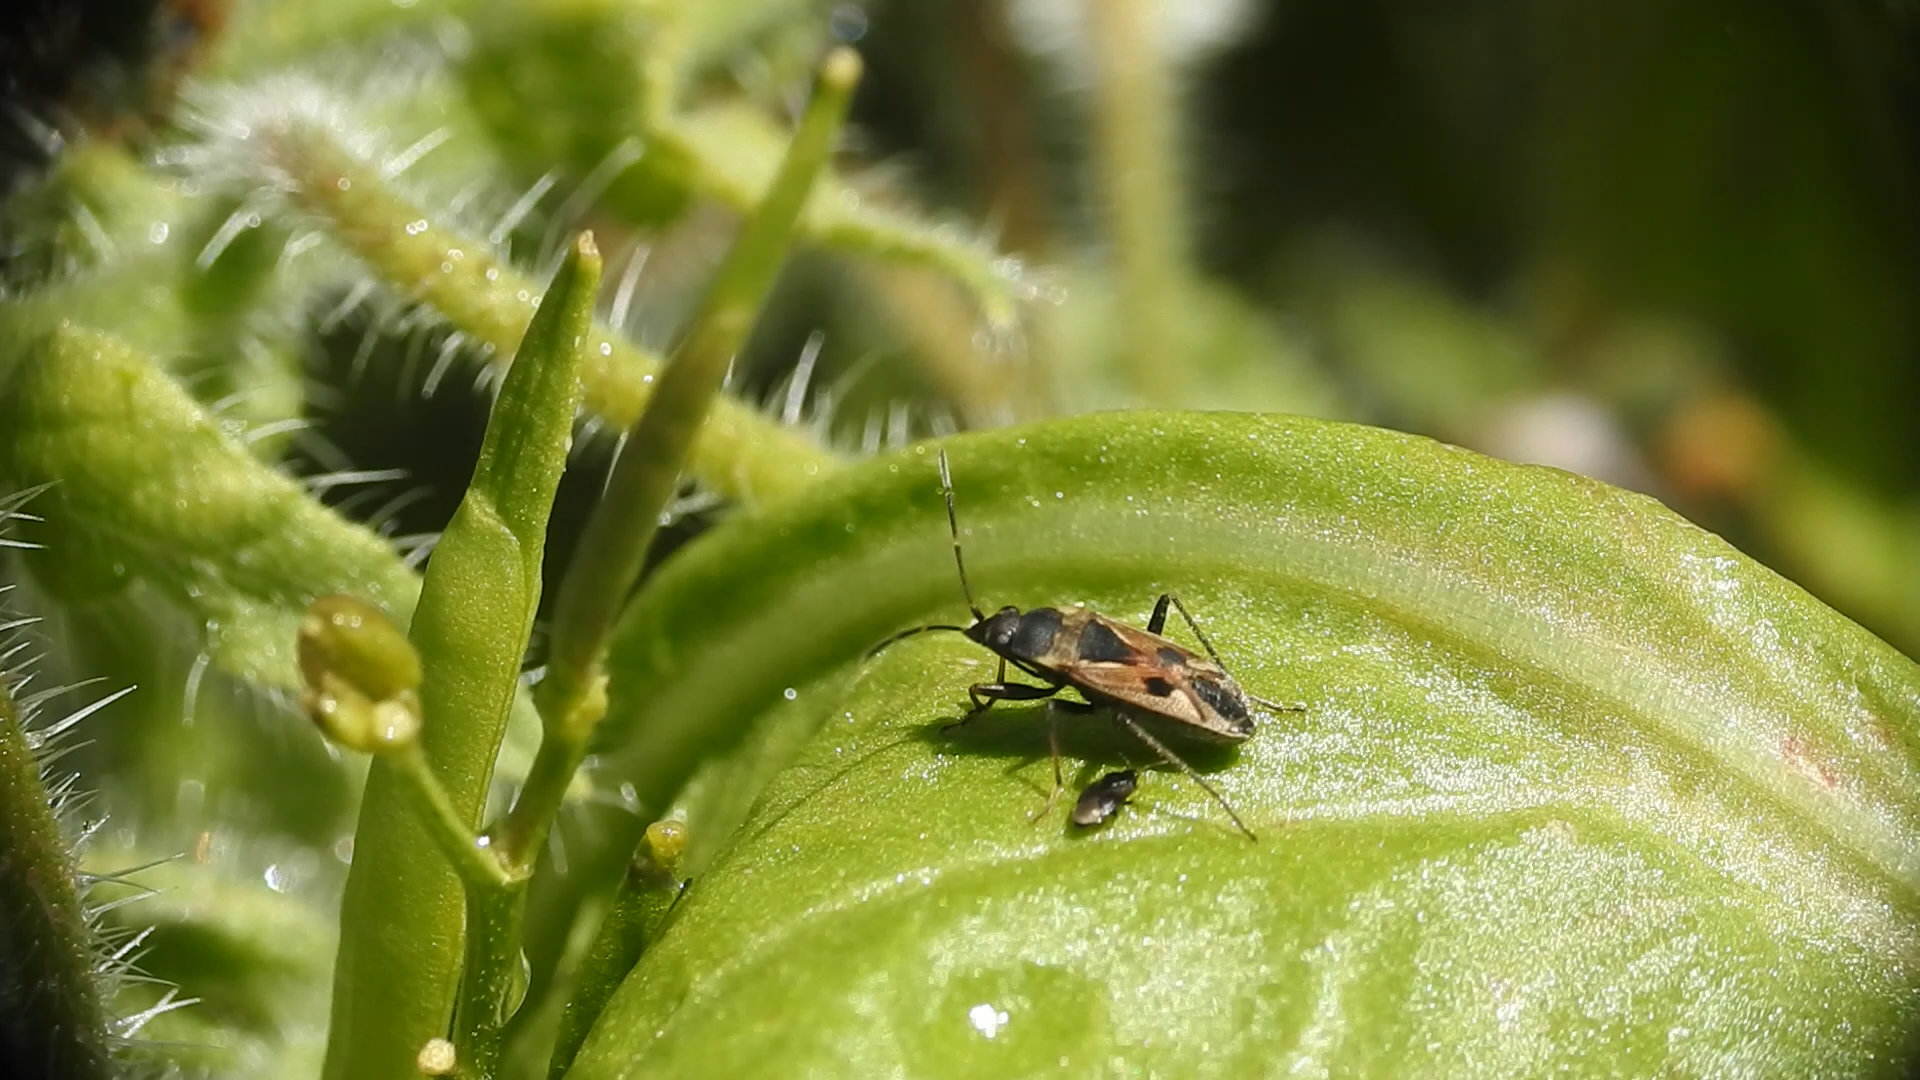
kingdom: Animalia
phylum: Arthropoda
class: Insecta
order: Hemiptera
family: Rhyparochromidae
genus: Rhyparochromus
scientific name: Rhyparochromus vulgaris
